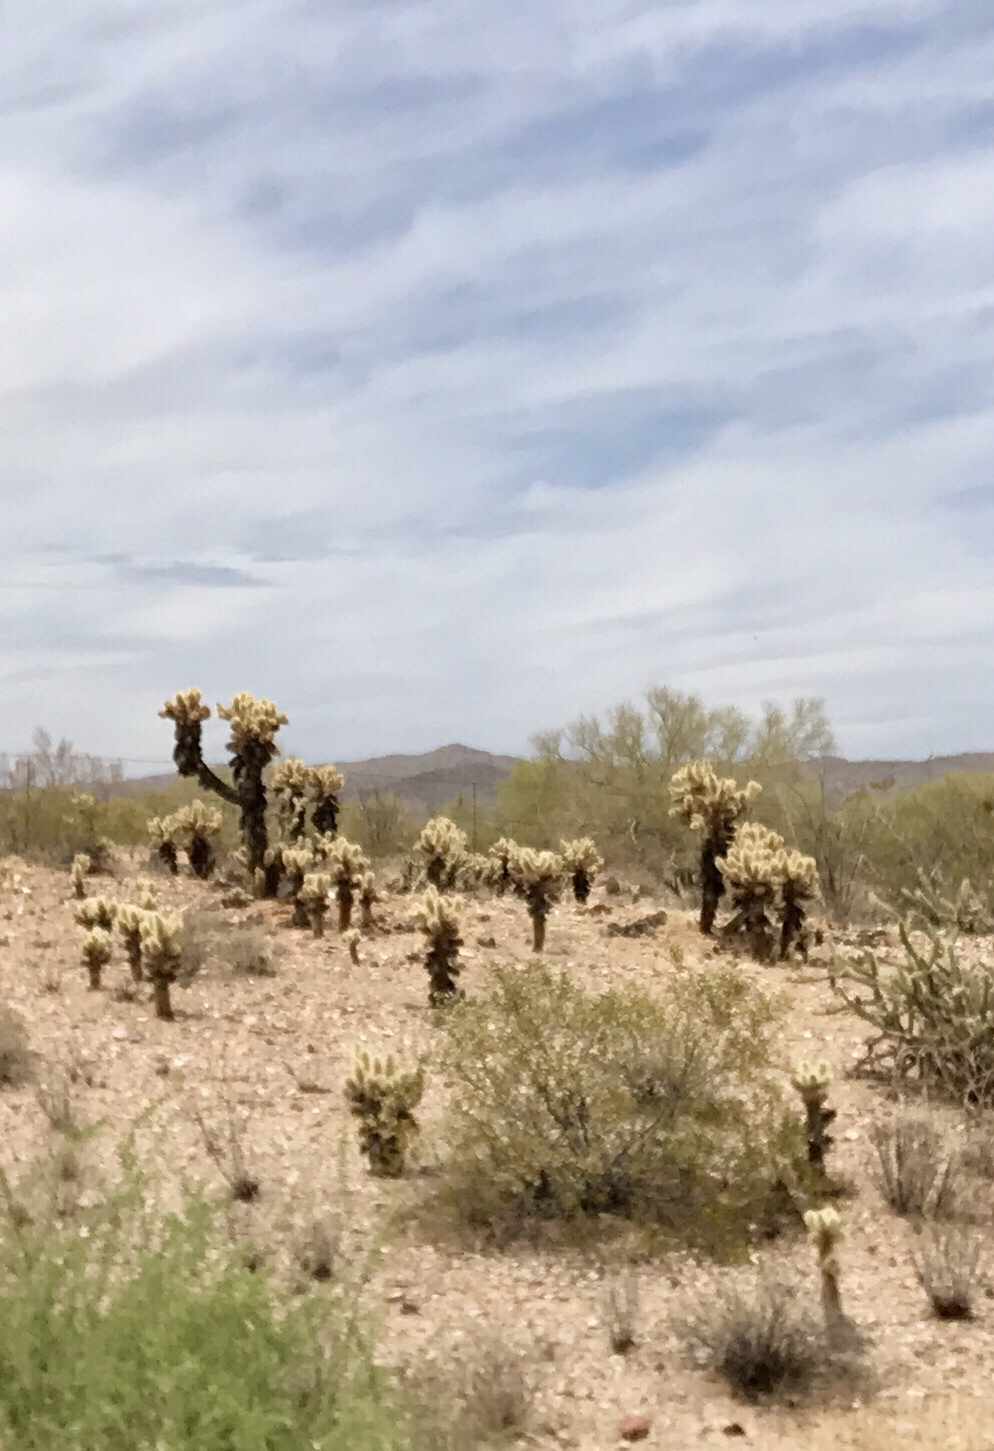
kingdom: Plantae
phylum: Tracheophyta
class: Magnoliopsida
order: Caryophyllales
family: Cactaceae
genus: Cylindropuntia
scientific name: Cylindropuntia fosbergii
